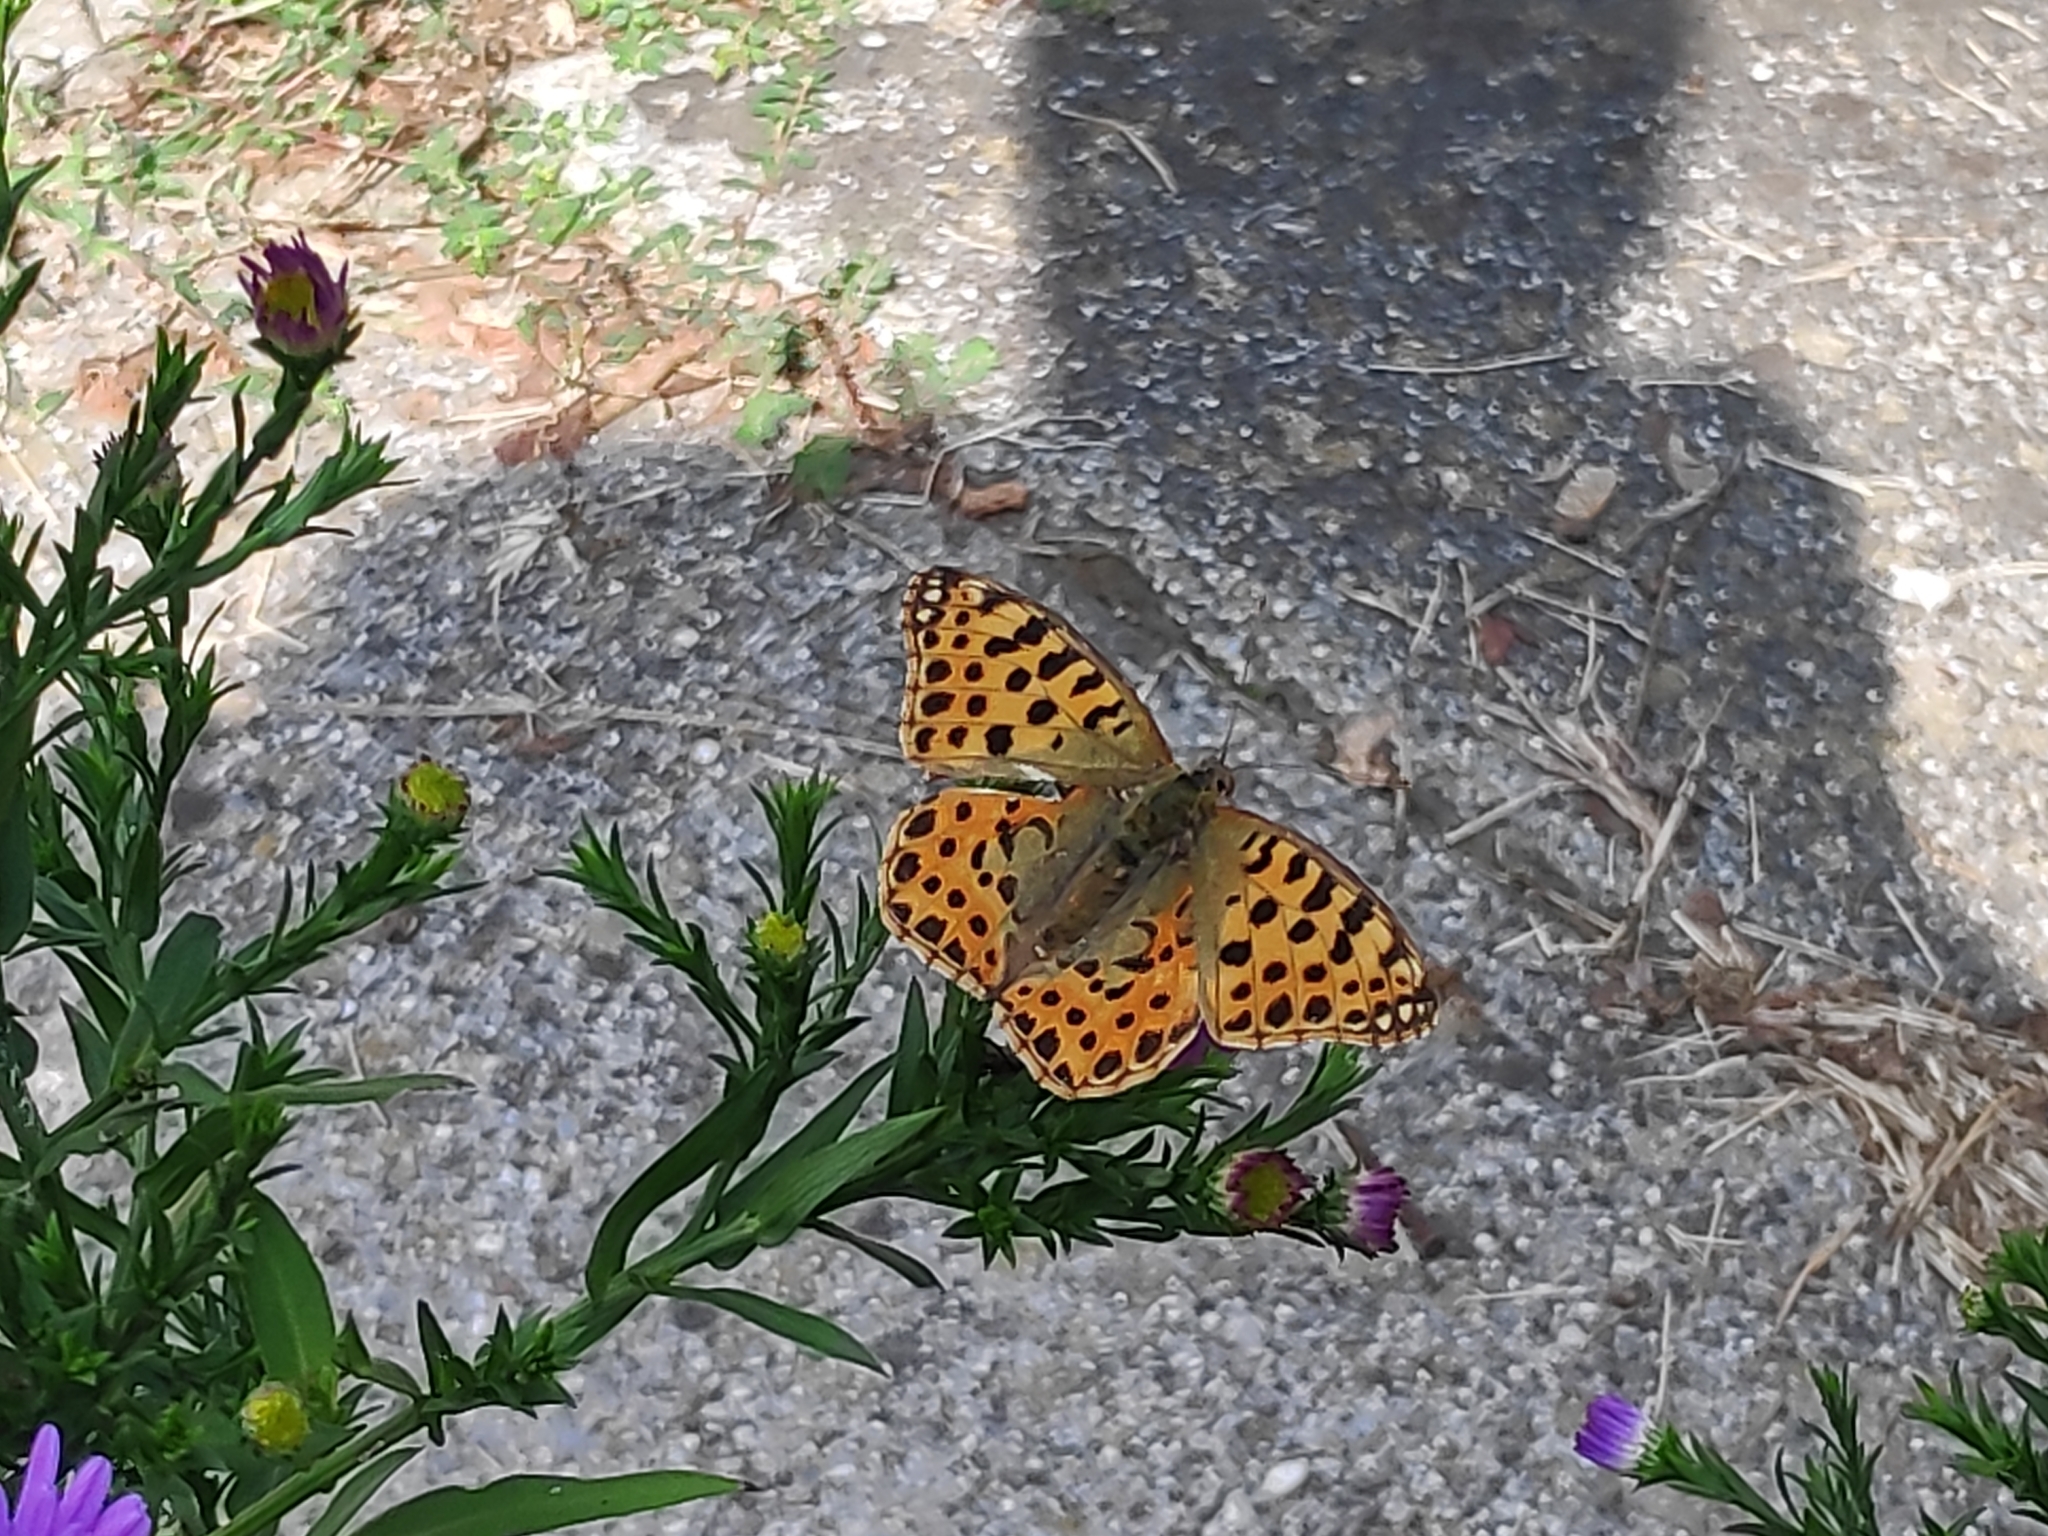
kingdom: Animalia
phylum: Arthropoda
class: Insecta
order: Lepidoptera
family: Nymphalidae
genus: Issoria
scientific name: Issoria lathonia
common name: Queen of spain fritillary
